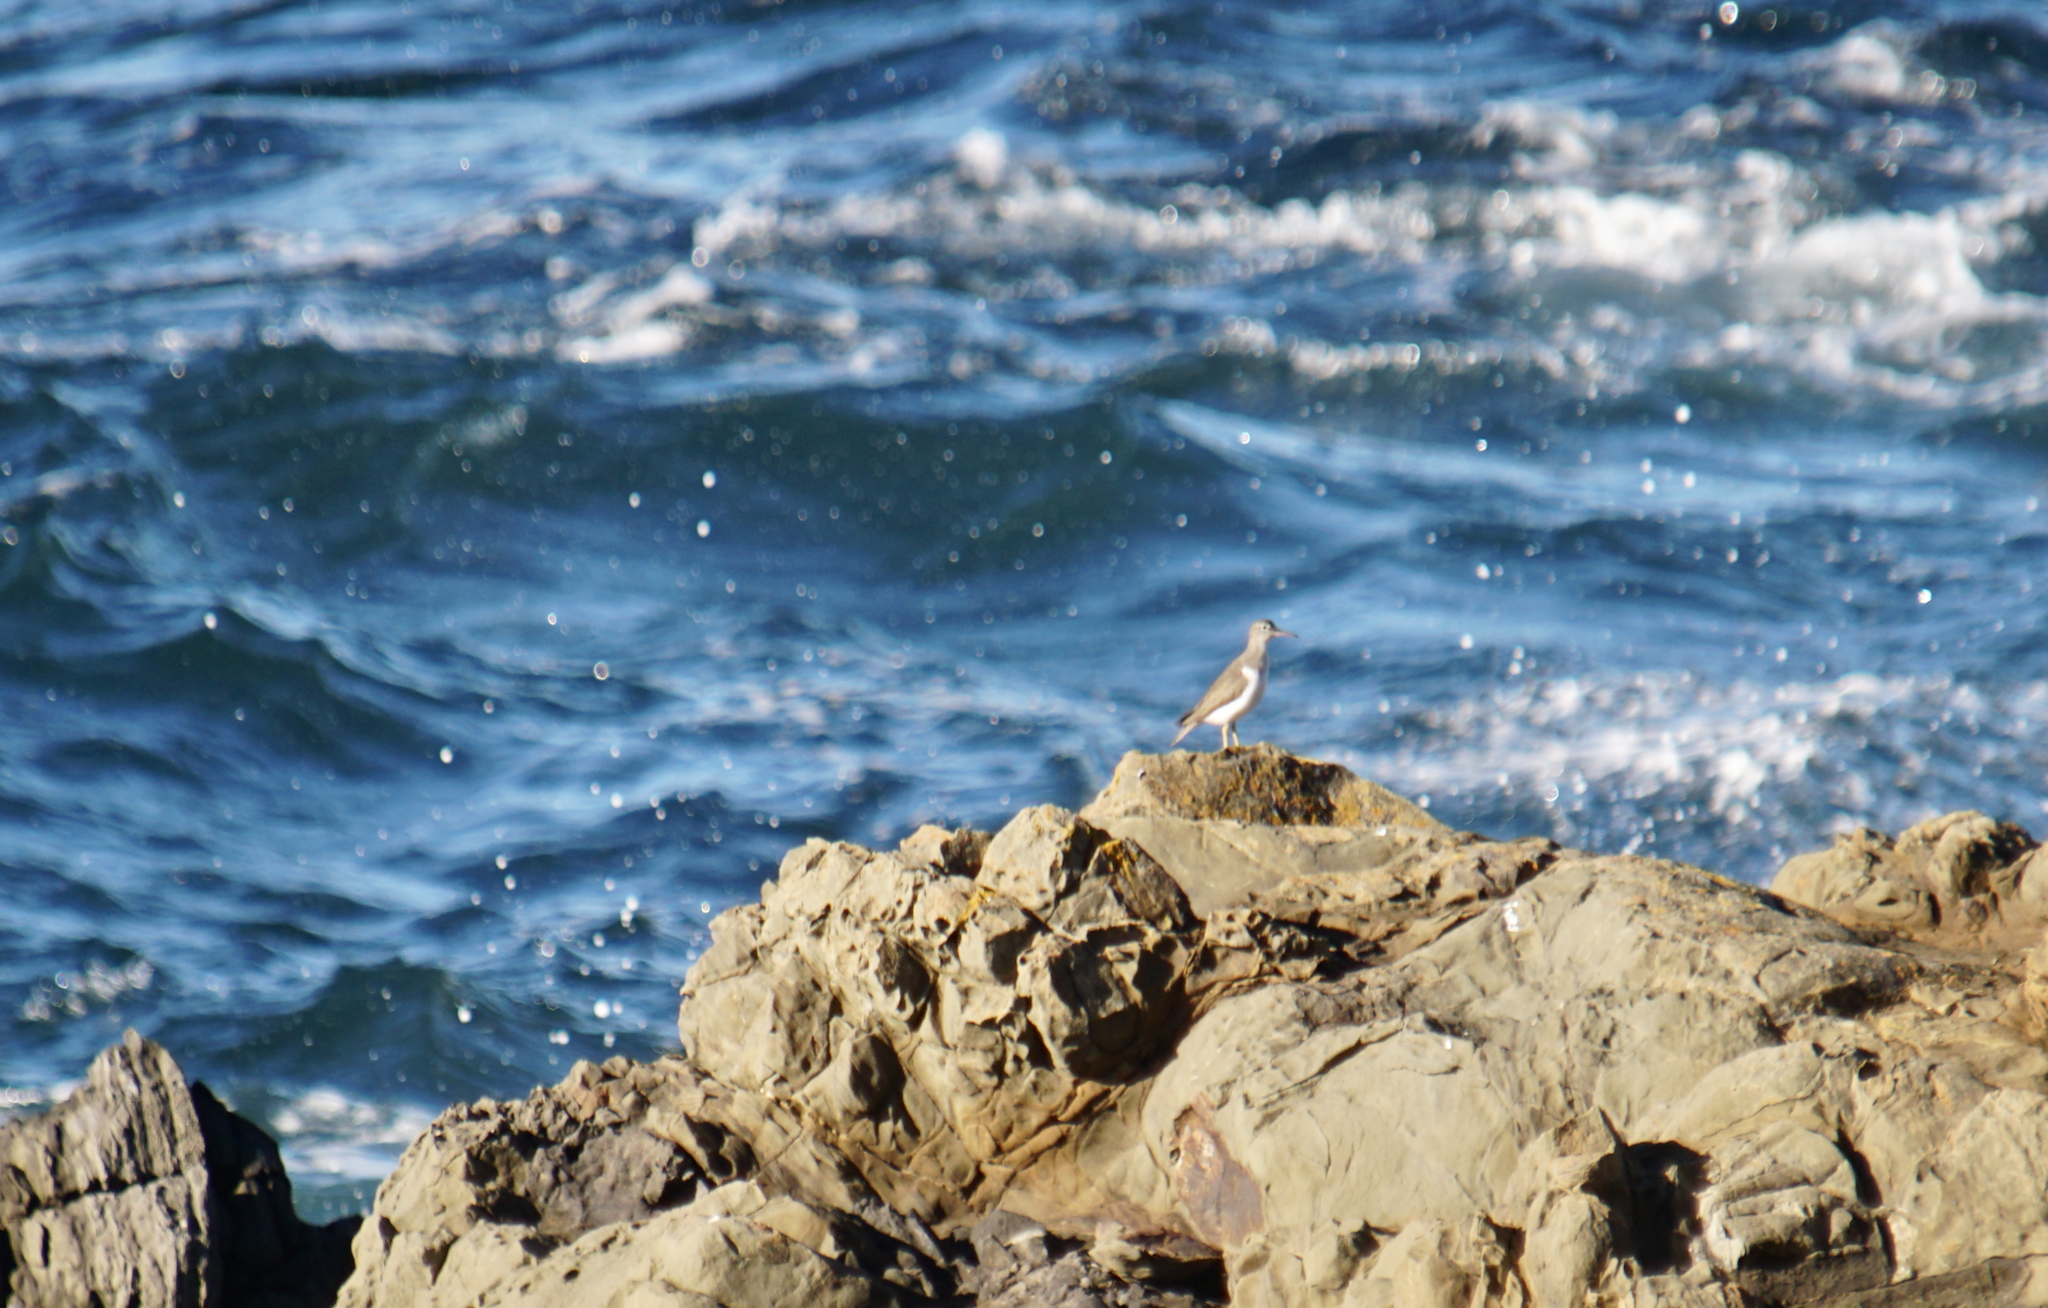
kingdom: Animalia
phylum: Chordata
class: Aves
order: Charadriiformes
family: Scolopacidae
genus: Actitis
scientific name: Actitis macularius
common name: Spotted sandpiper
